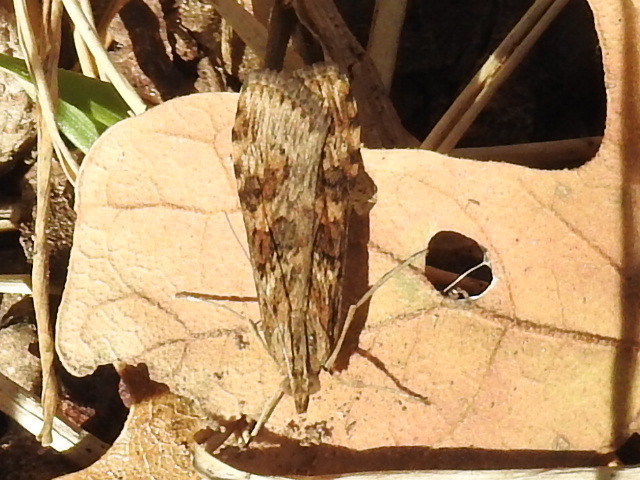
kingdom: Animalia
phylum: Arthropoda
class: Insecta
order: Lepidoptera
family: Crambidae
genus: Nomophila
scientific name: Nomophila nearctica
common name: American rush veneer
